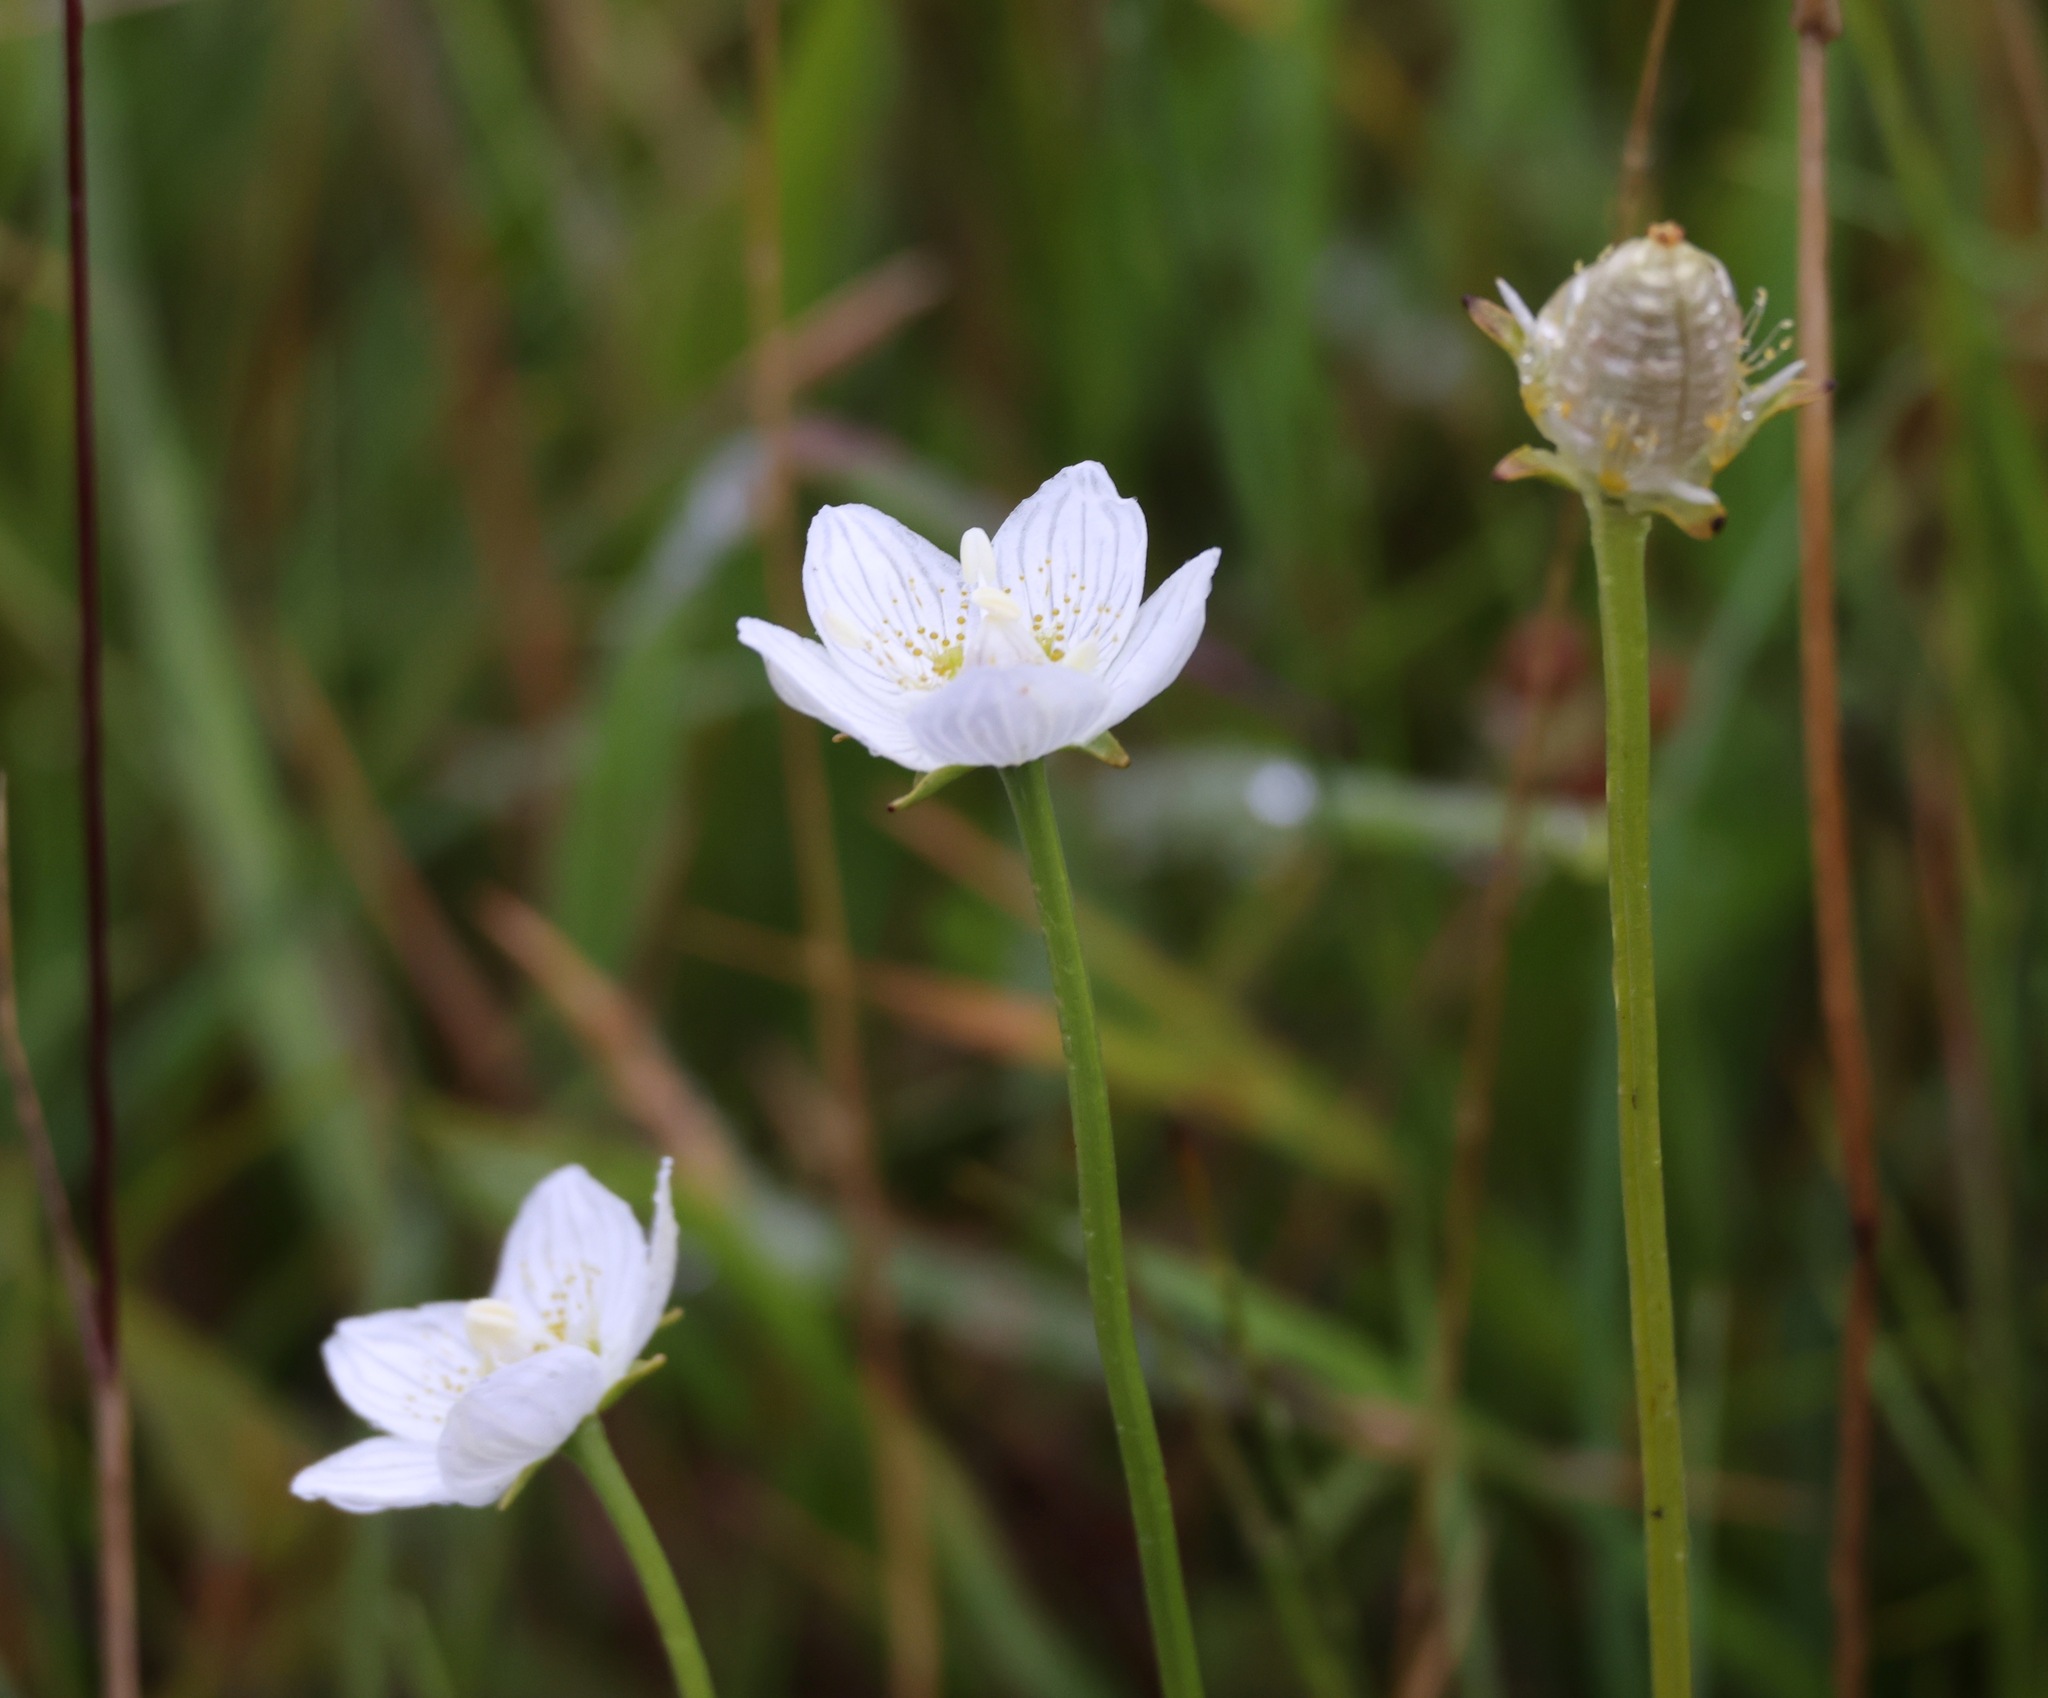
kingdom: Plantae
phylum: Tracheophyta
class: Magnoliopsida
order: Celastrales
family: Parnassiaceae
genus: Parnassia
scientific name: Parnassia palustris
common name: Grass-of-parnassus
